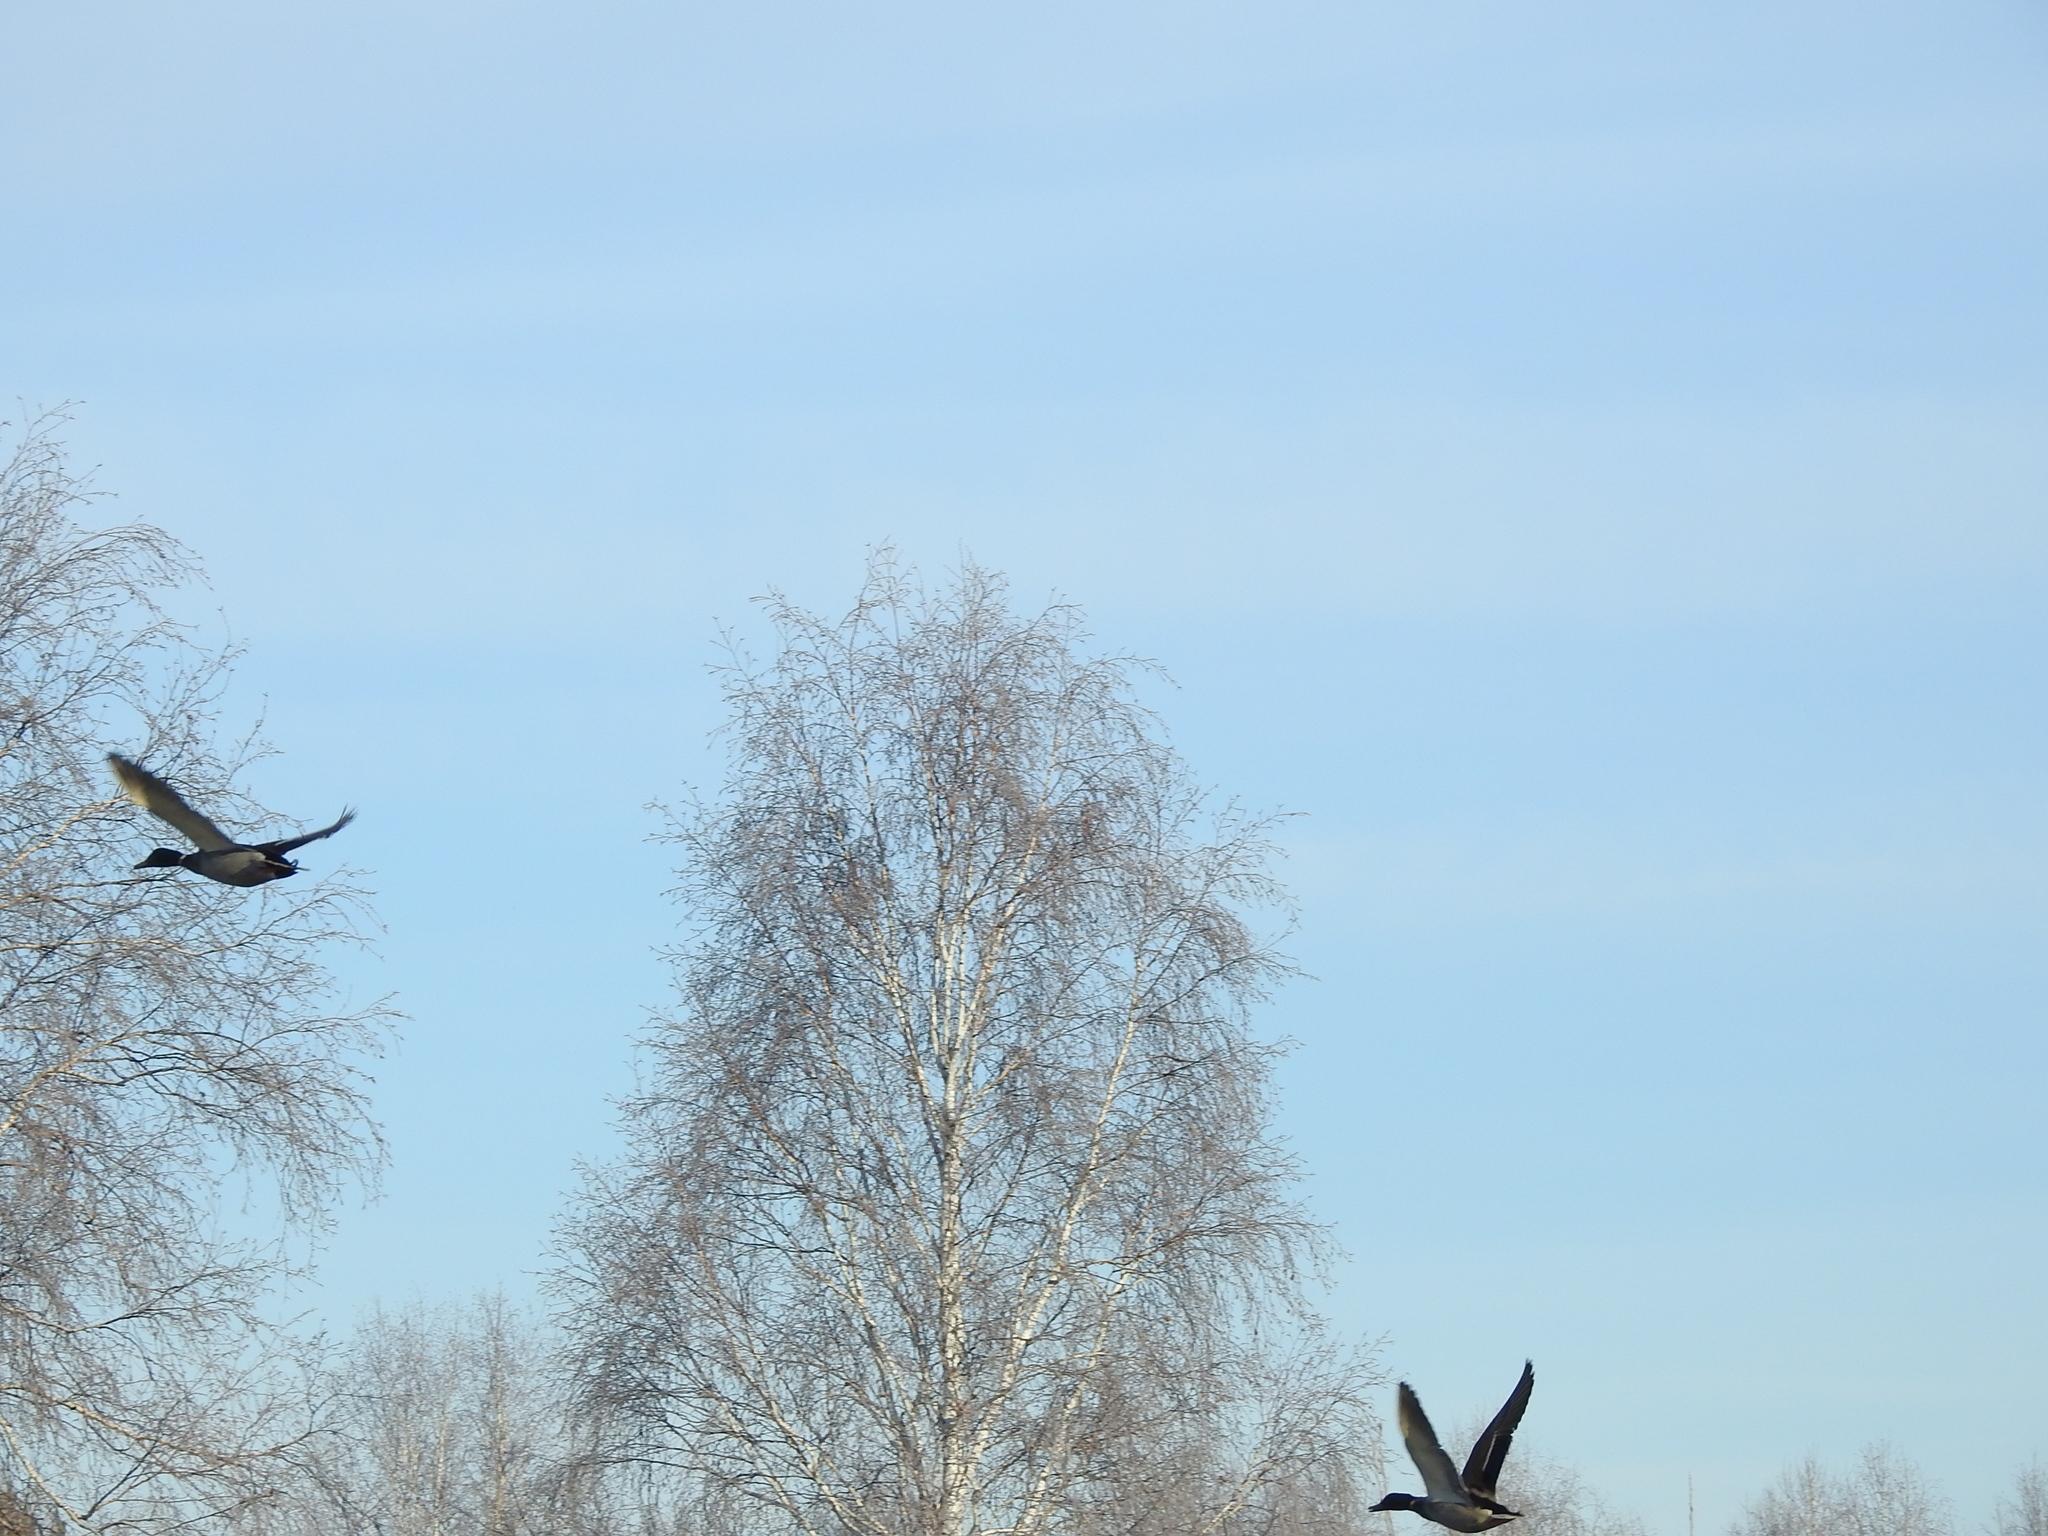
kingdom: Animalia
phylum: Chordata
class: Aves
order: Anseriformes
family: Anatidae
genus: Anas
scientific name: Anas platyrhynchos
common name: Mallard
